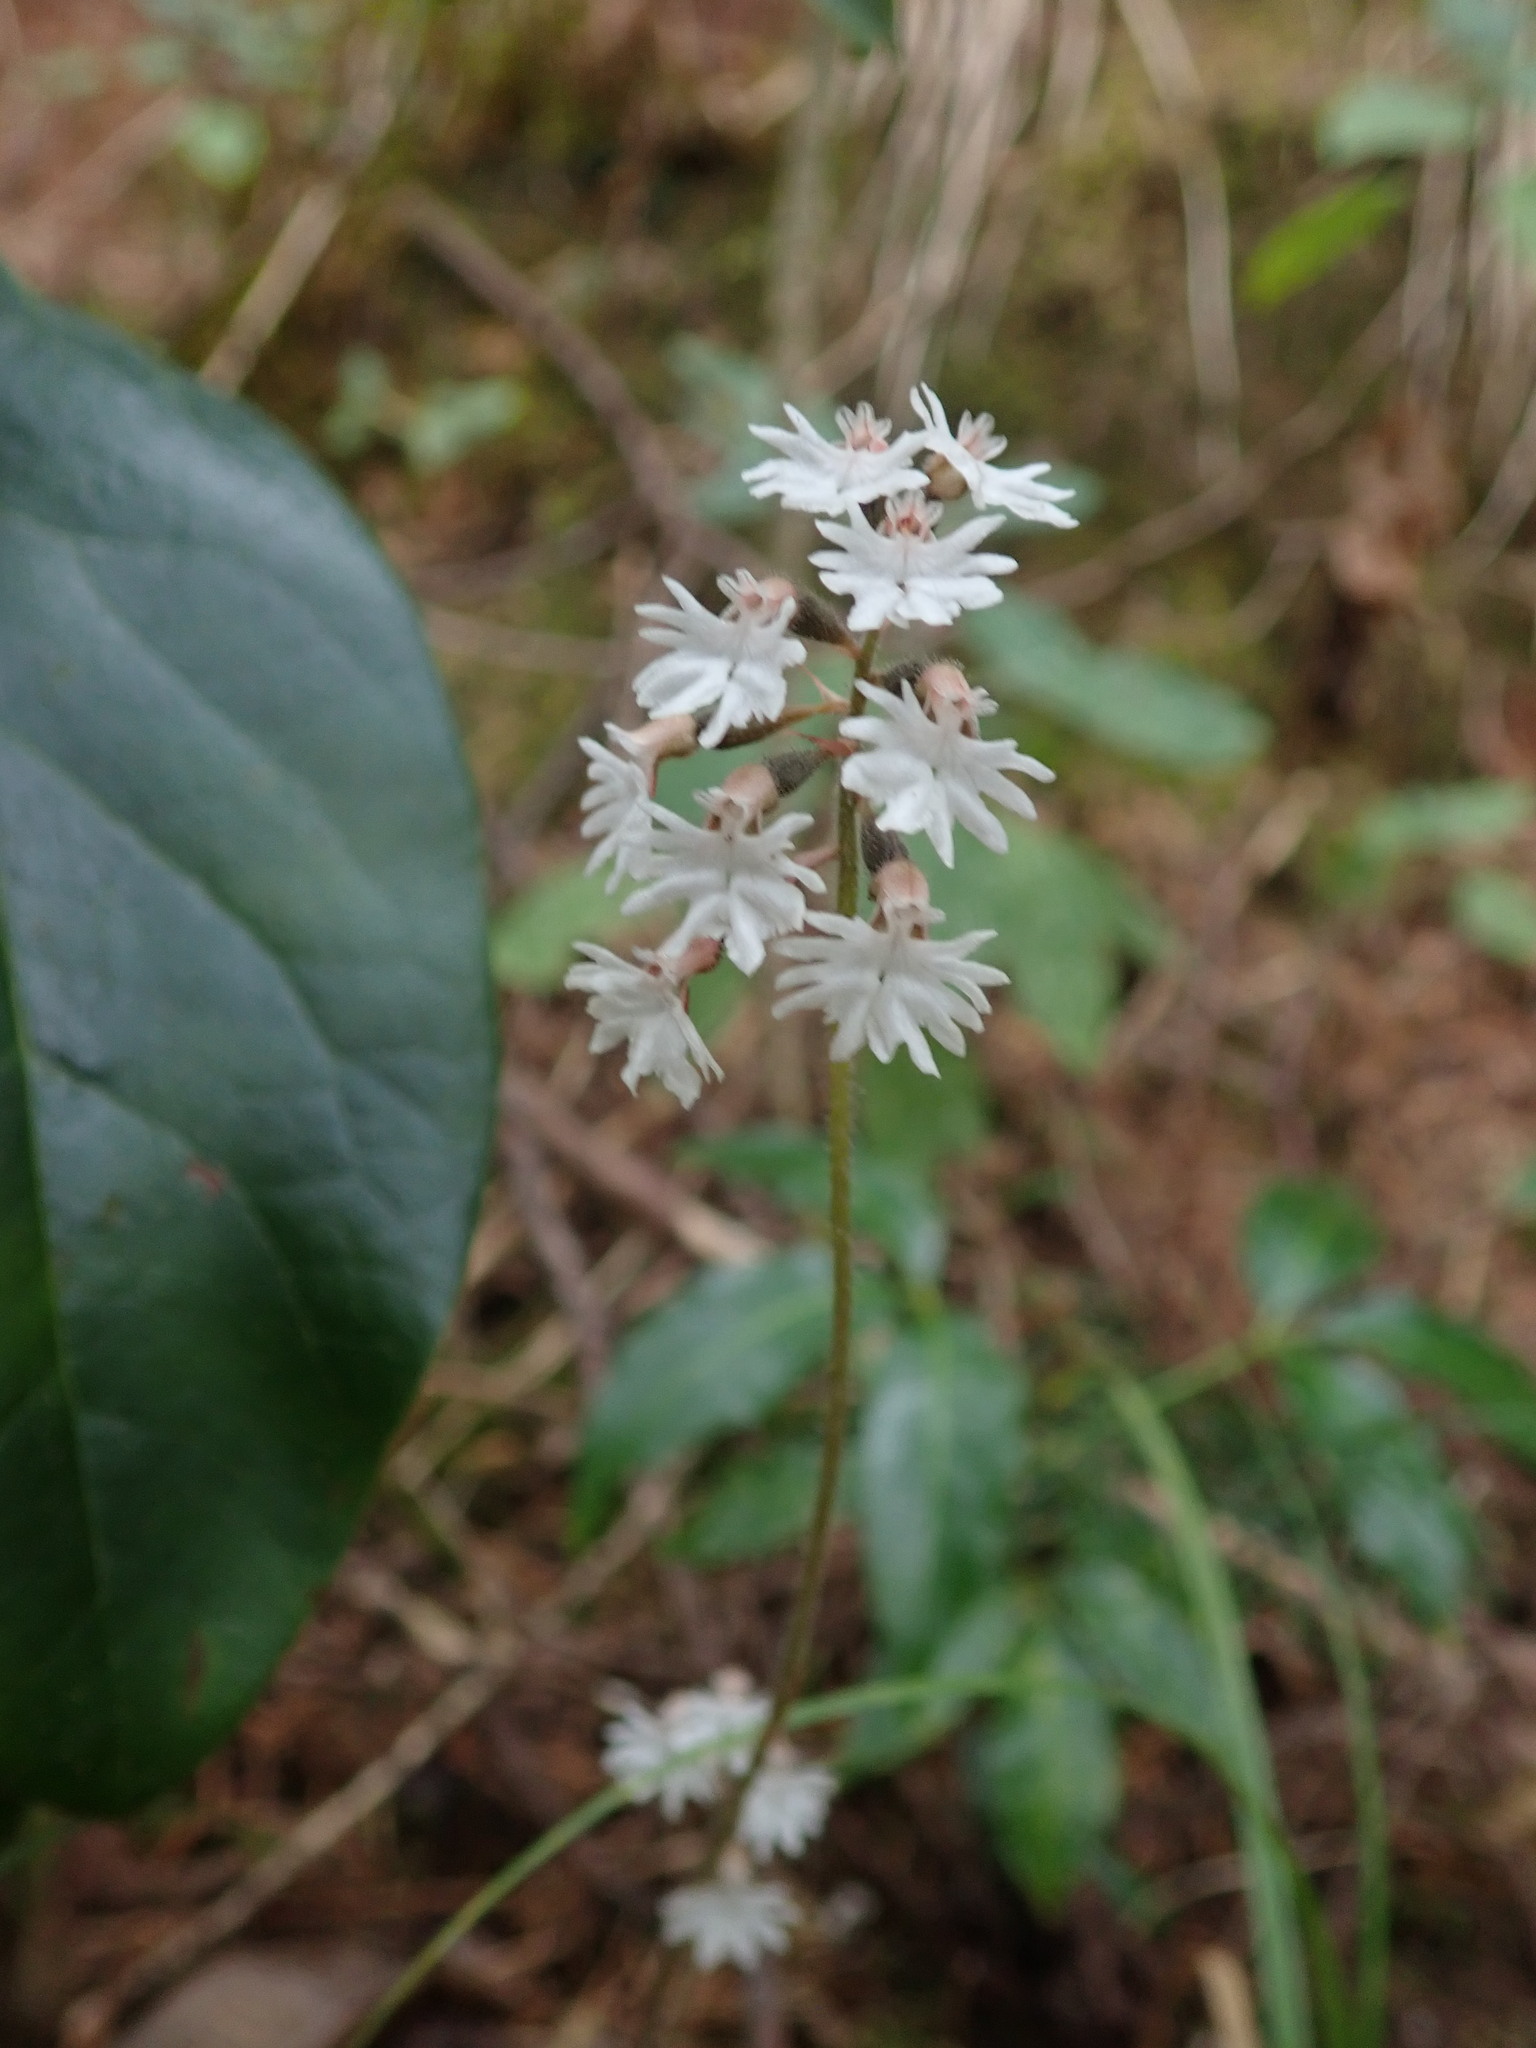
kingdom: Plantae
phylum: Tracheophyta
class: Liliopsida
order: Asparagales
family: Orchidaceae
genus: Cheirostylis
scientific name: Cheirostylis flabellata
